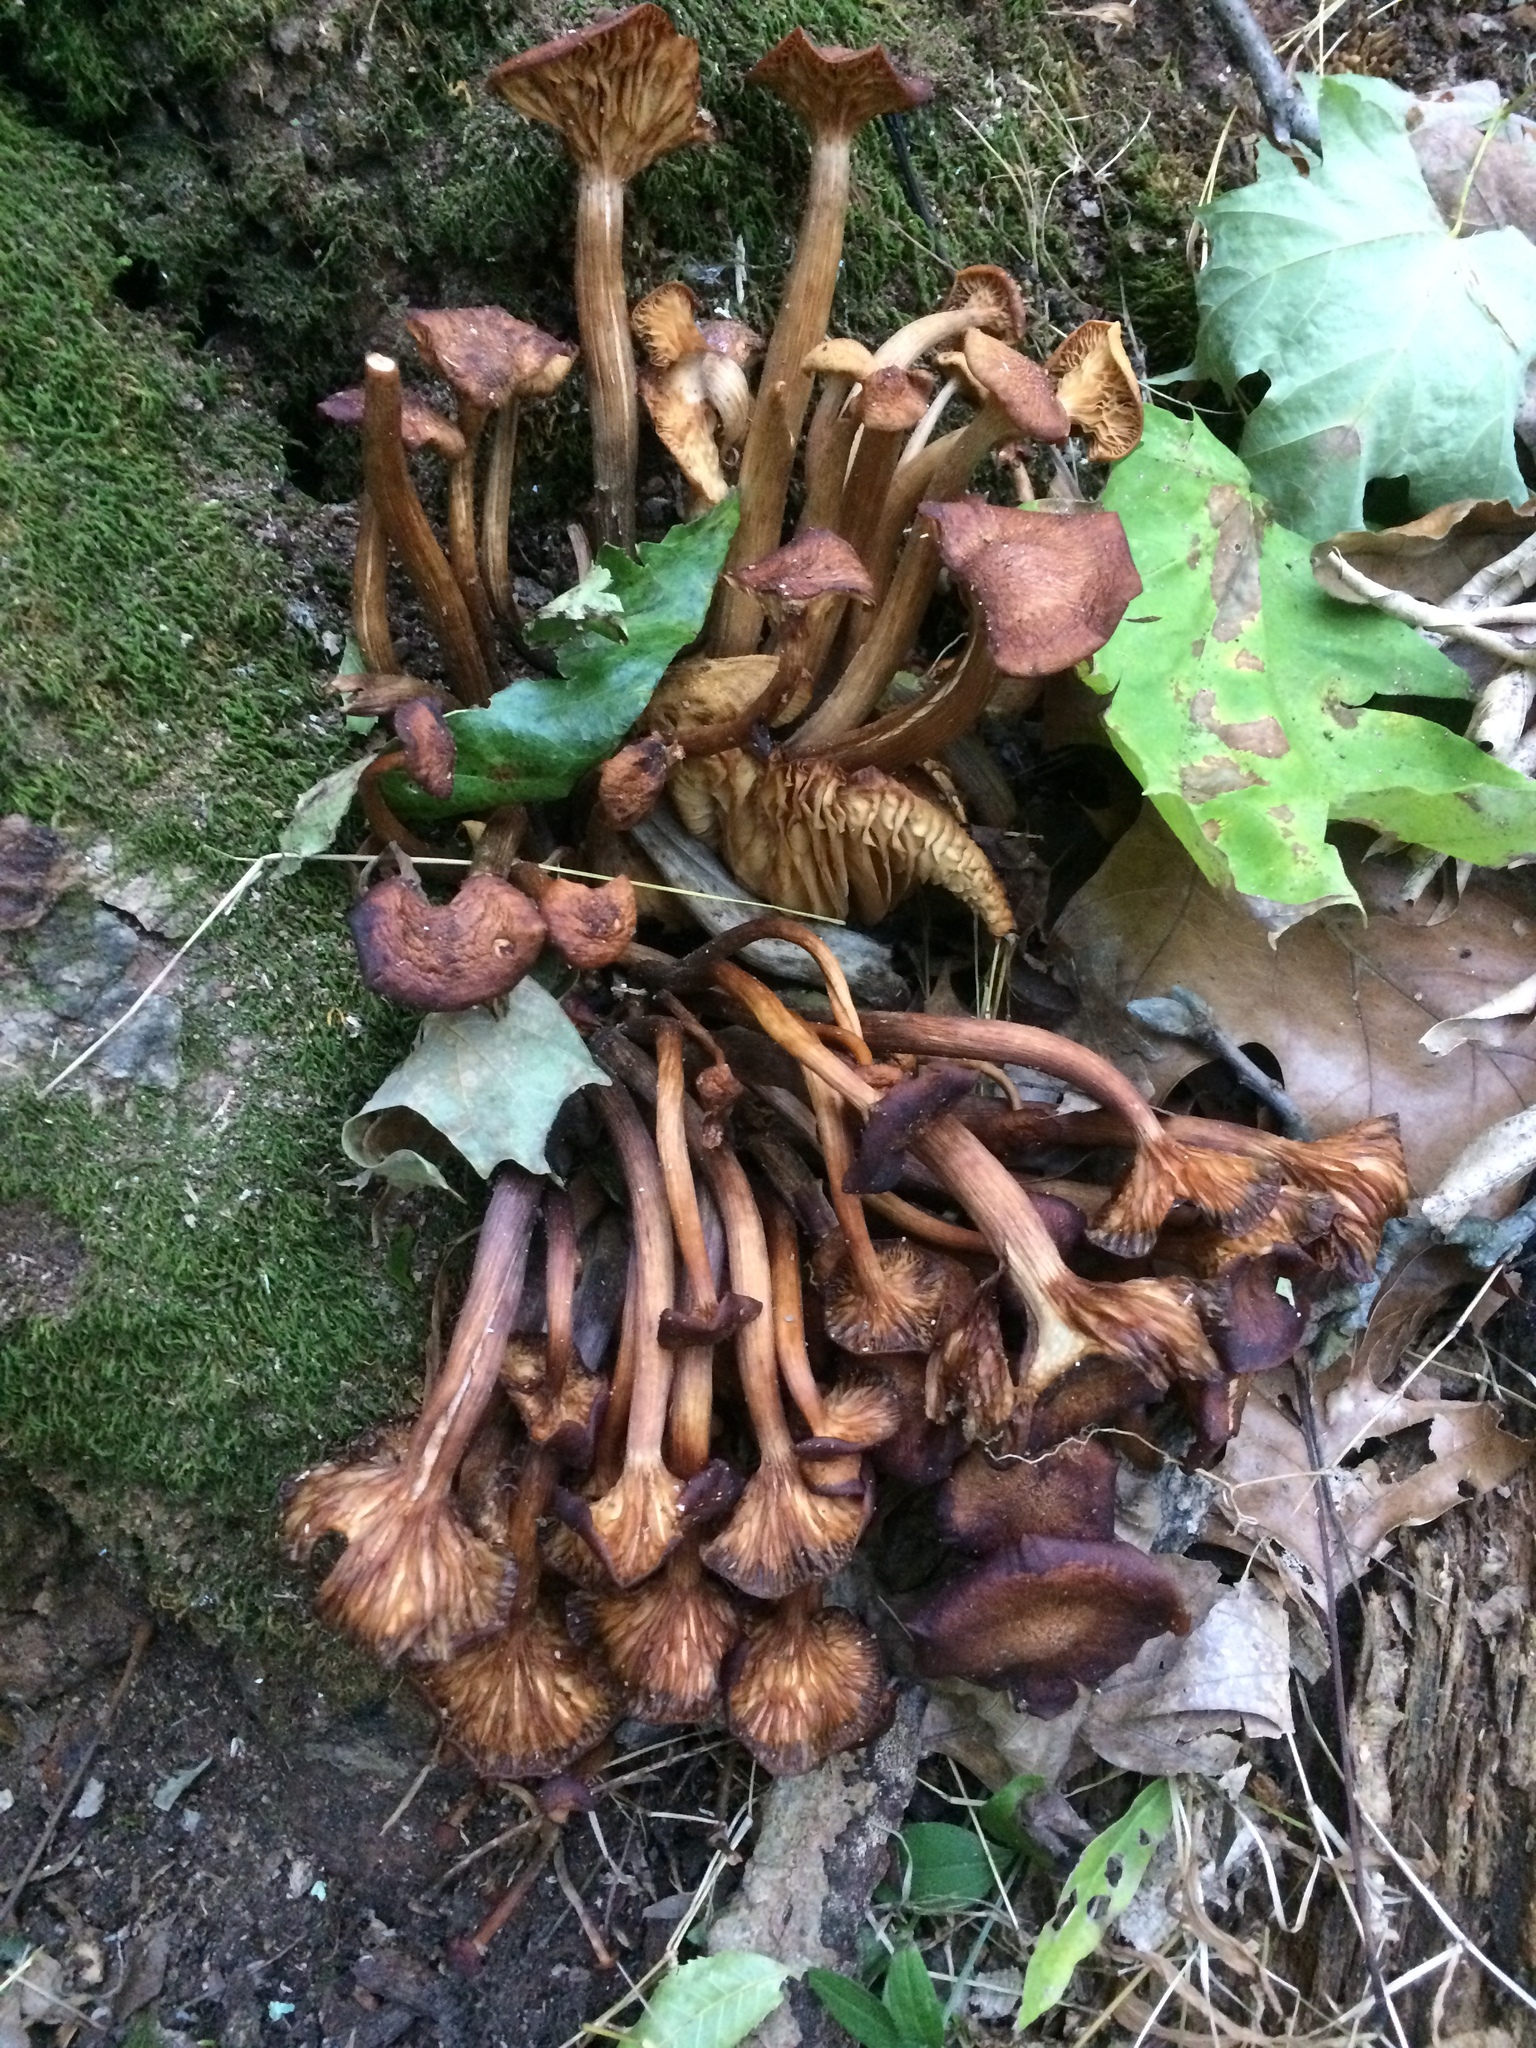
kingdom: Fungi
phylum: Basidiomycota
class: Agaricomycetes
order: Agaricales
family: Physalacriaceae
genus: Desarmillaria
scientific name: Desarmillaria caespitosa
